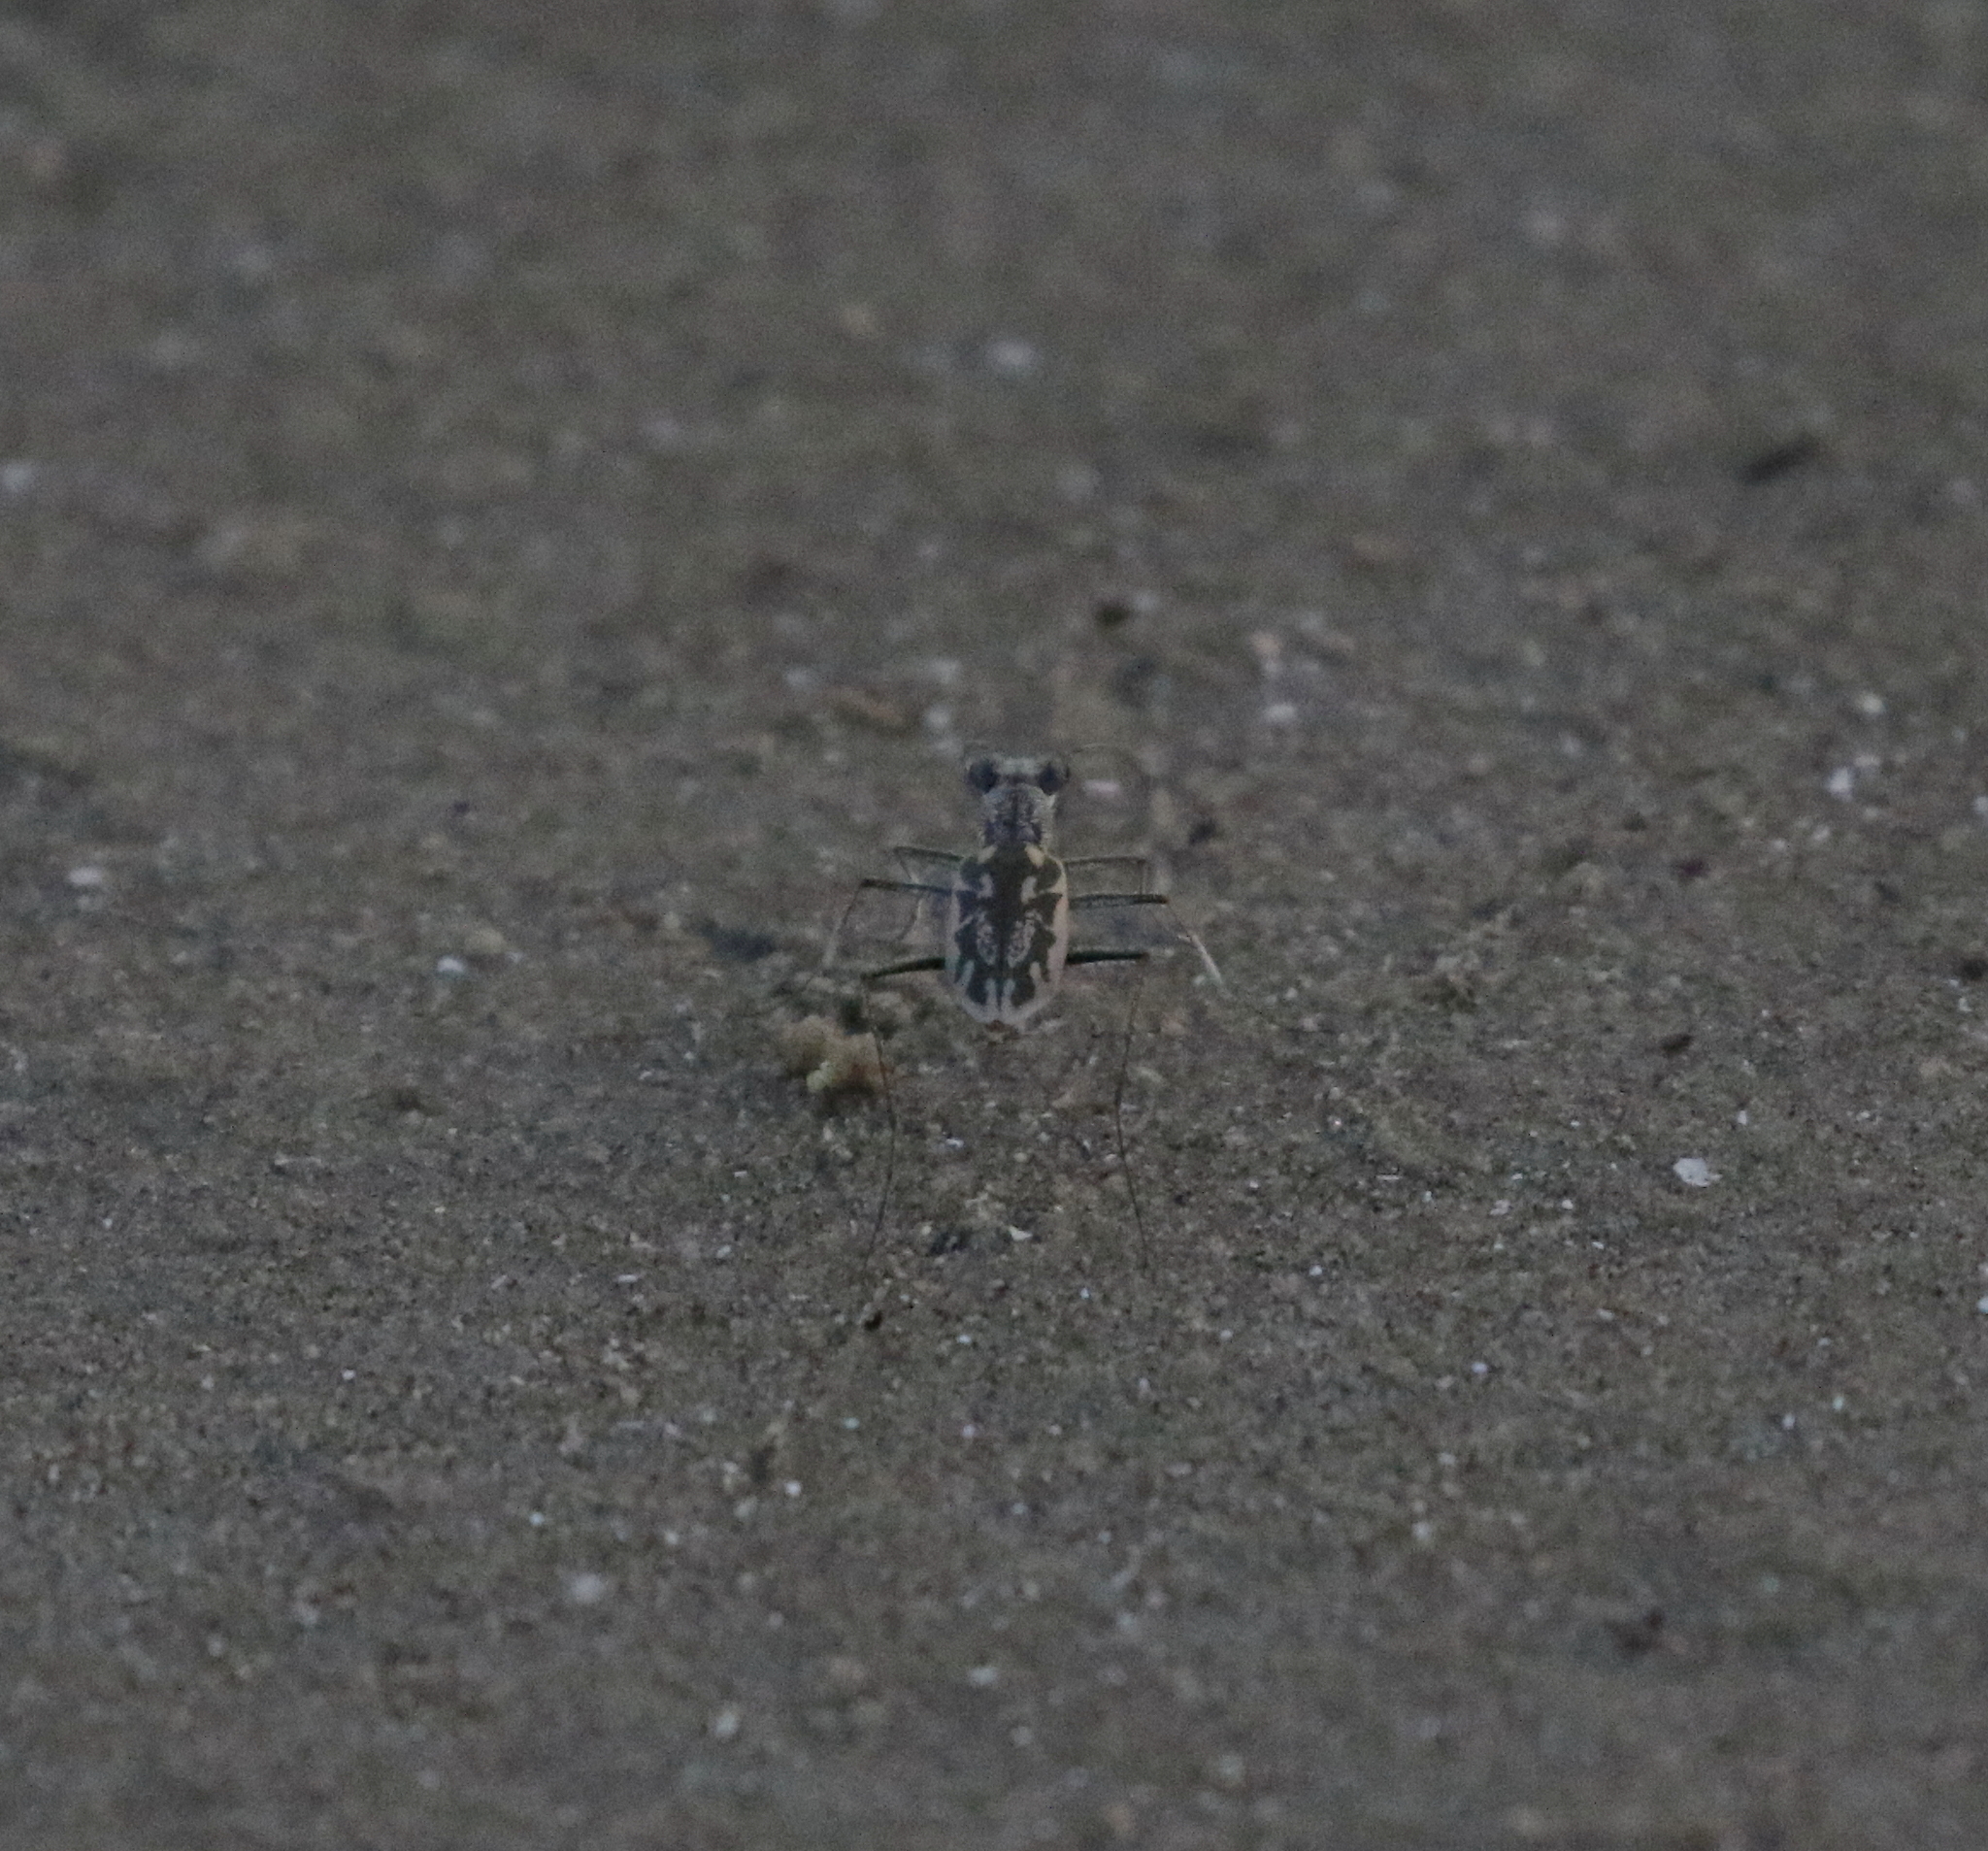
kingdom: Animalia
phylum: Arthropoda
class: Insecta
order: Coleoptera
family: Carabidae
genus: Ellipsoptera
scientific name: Ellipsoptera hamata
